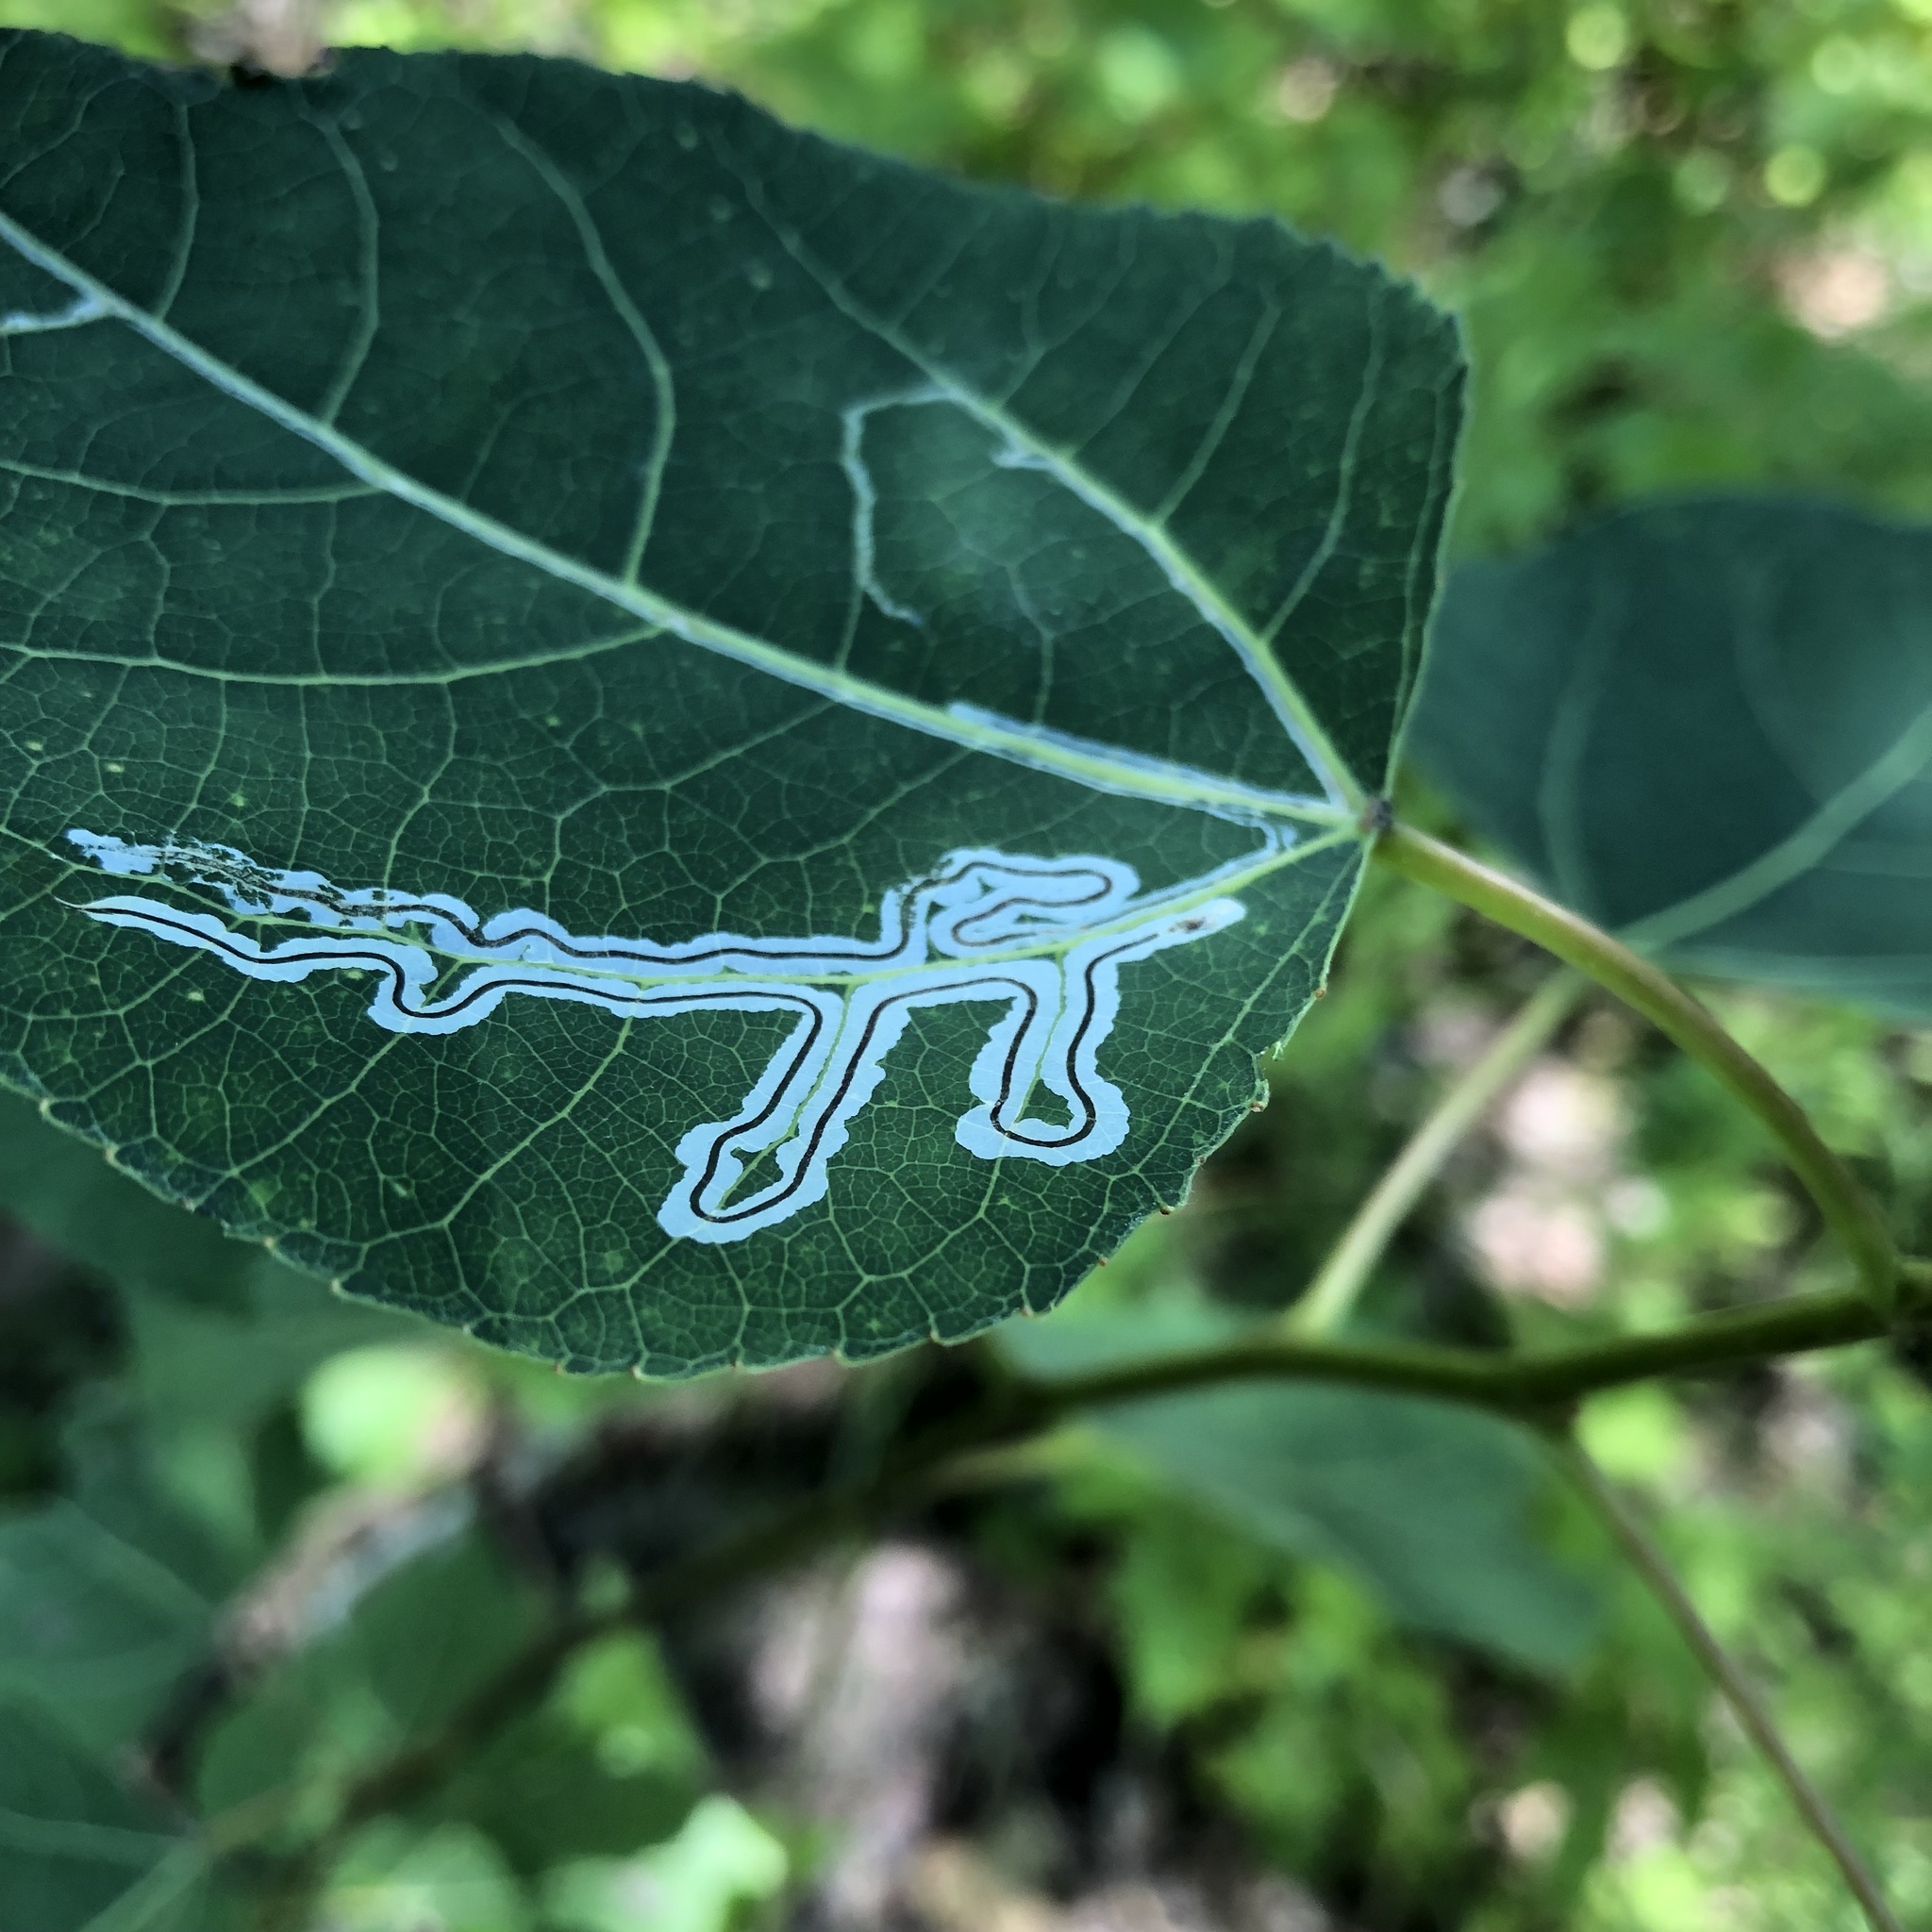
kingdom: Animalia
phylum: Arthropoda
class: Insecta
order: Lepidoptera
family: Gracillariidae
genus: Phyllocnistis
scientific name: Phyllocnistis populiella
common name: Aspen serpentine leafminer moth
